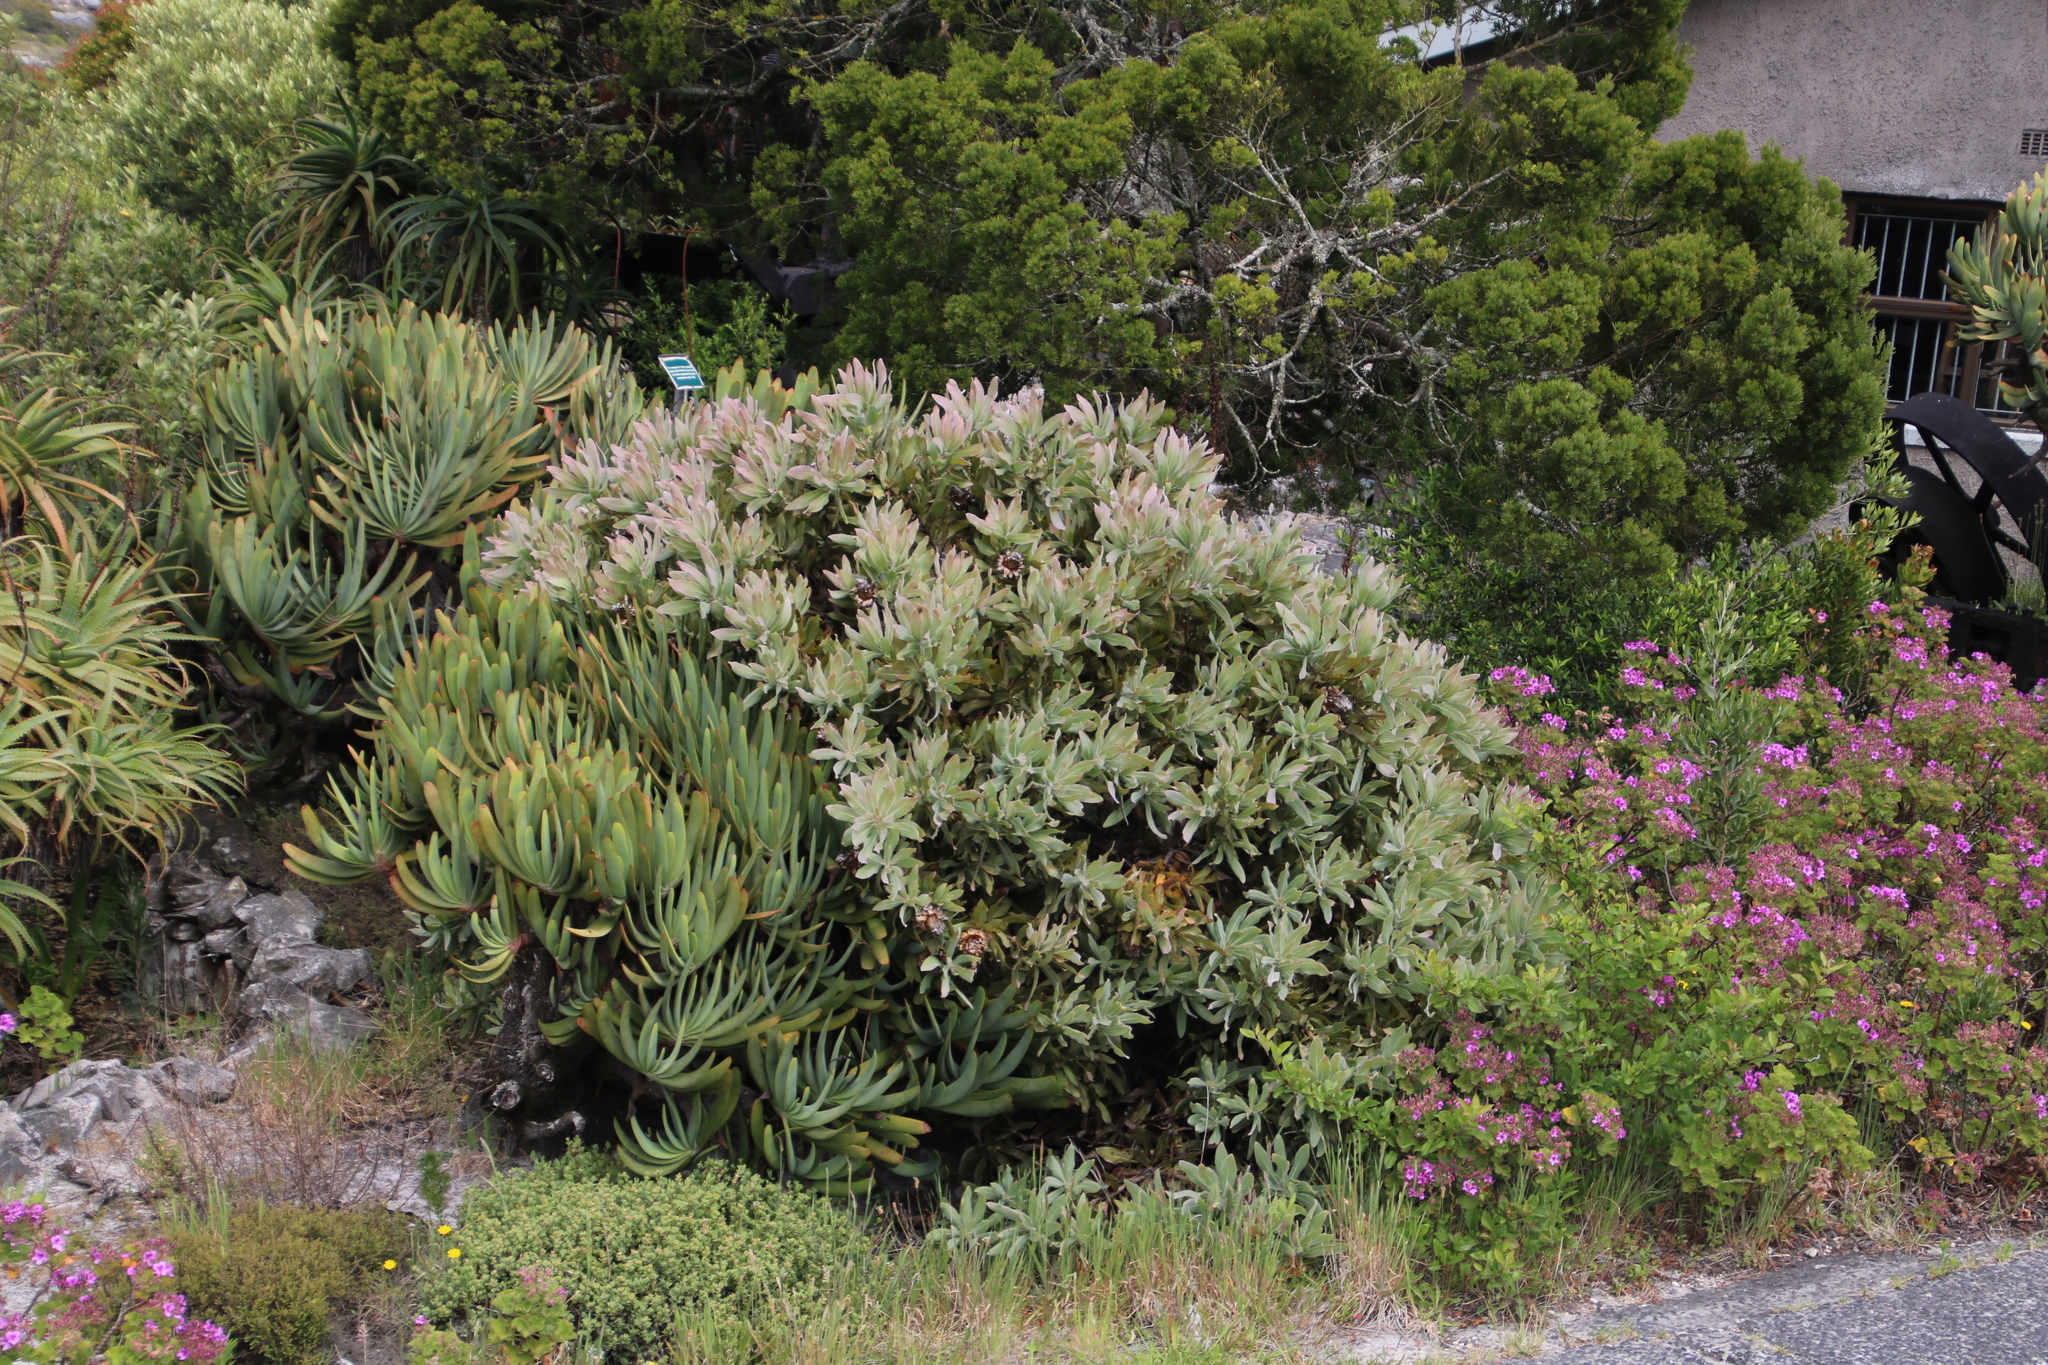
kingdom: Plantae
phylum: Tracheophyta
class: Magnoliopsida
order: Proteales
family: Proteaceae
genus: Protea
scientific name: Protea magnifica
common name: Bearded sugarbush
